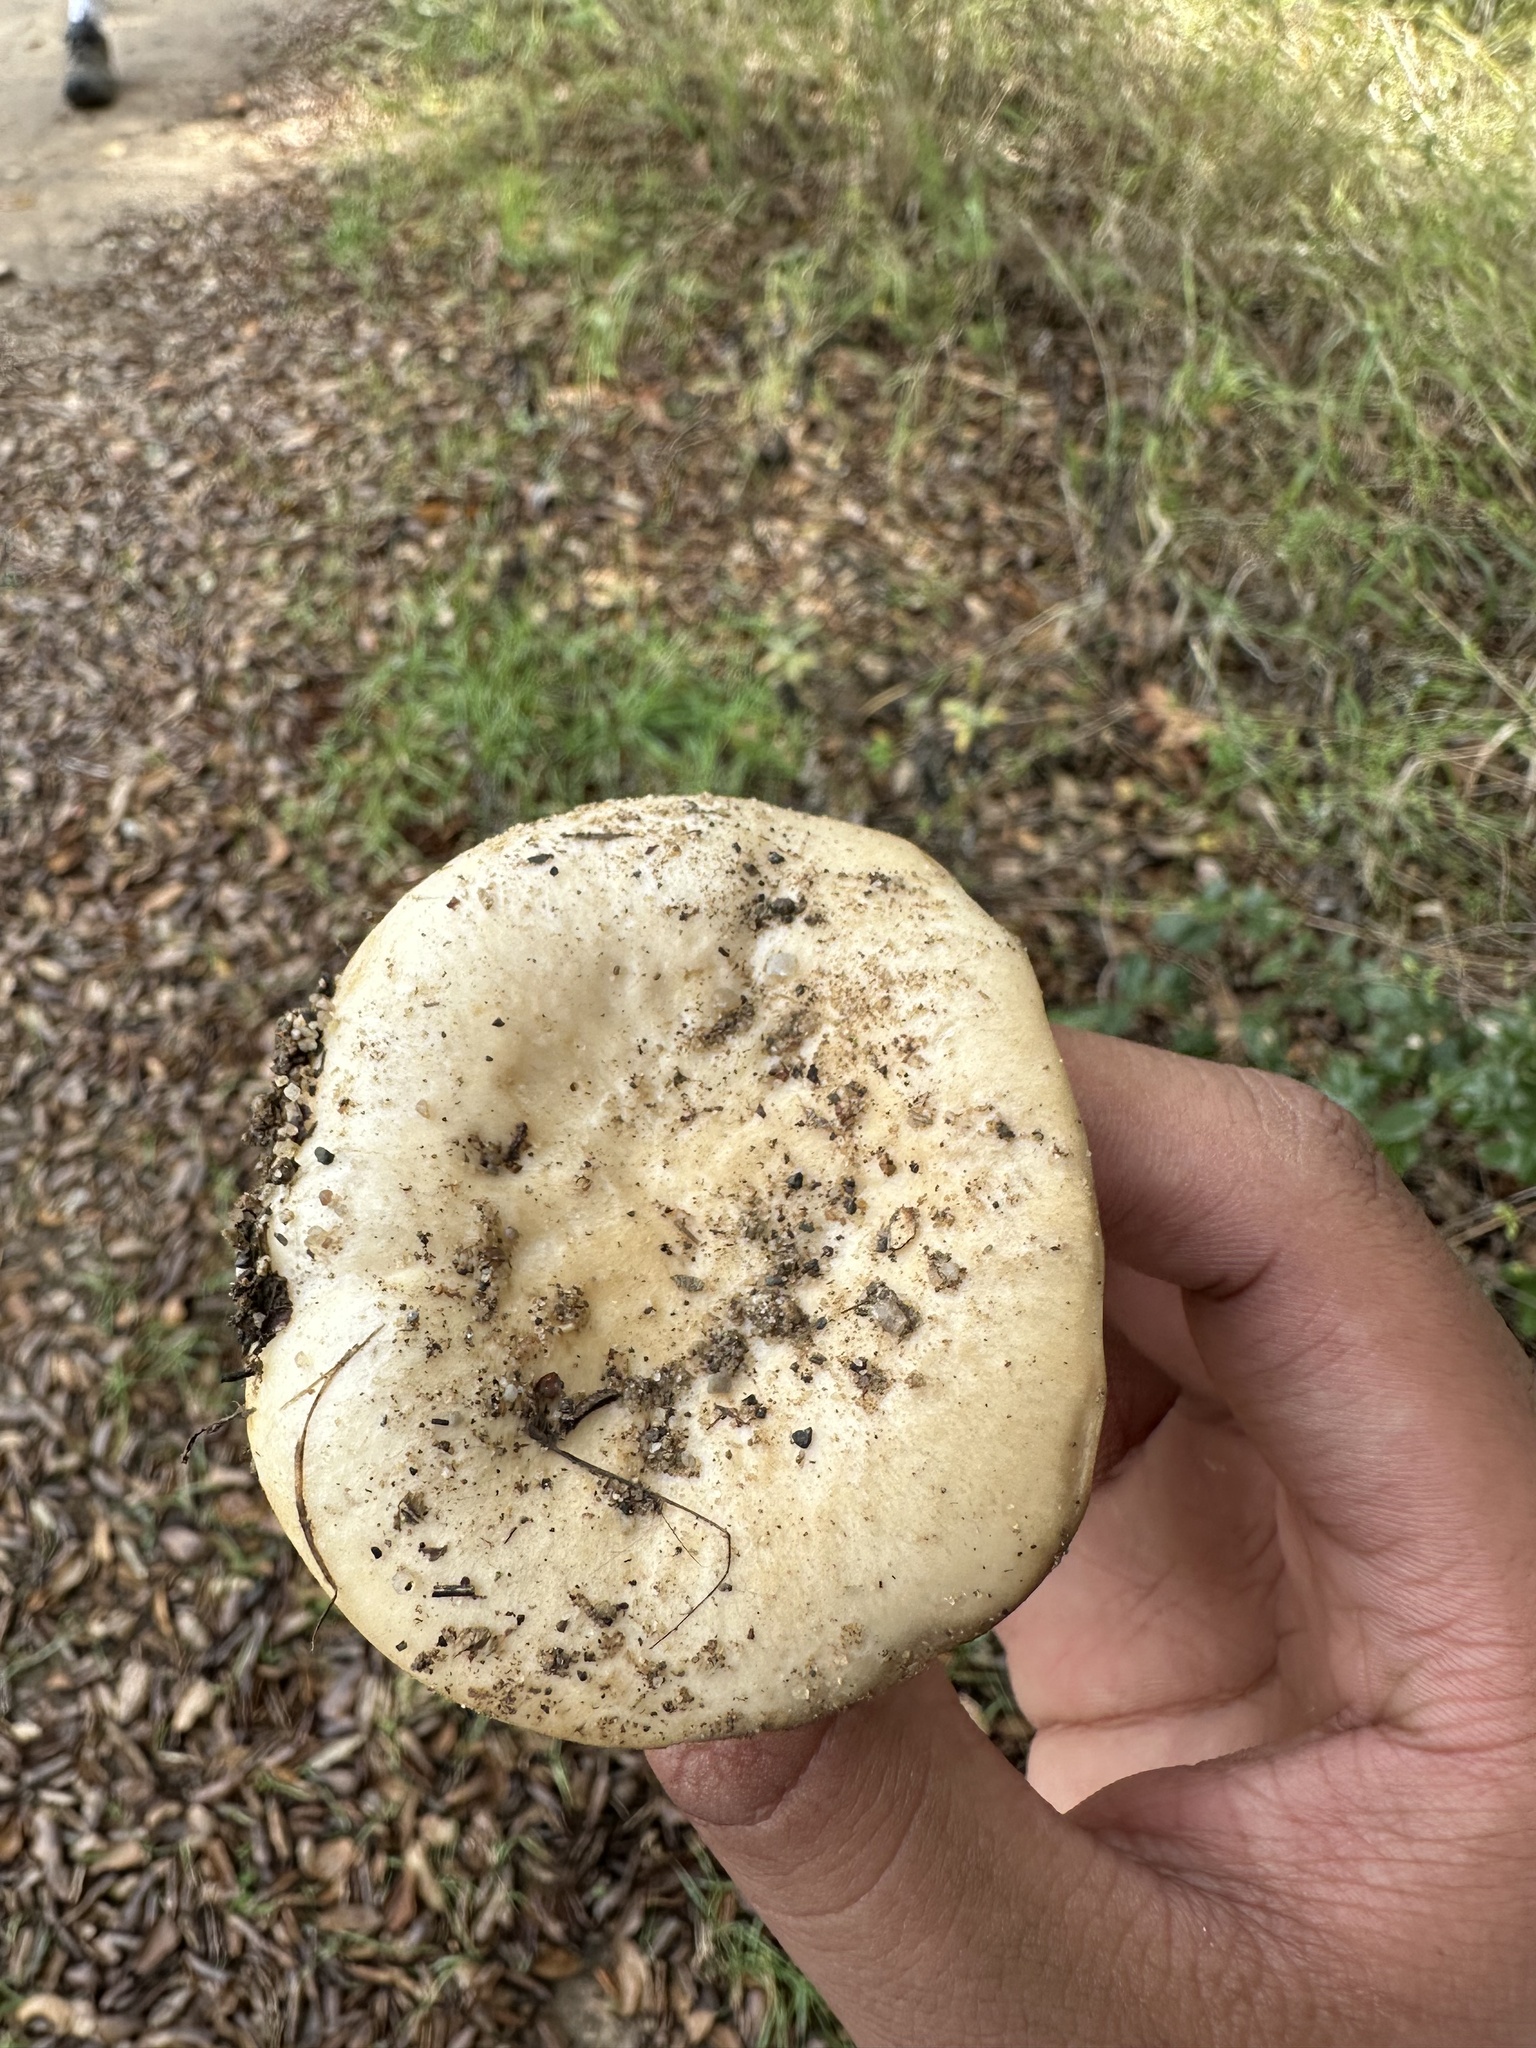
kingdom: Fungi
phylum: Basidiomycota
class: Agaricomycetes
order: Russulales
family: Russulaceae
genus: Lactarius
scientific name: Lactarius alnicola
